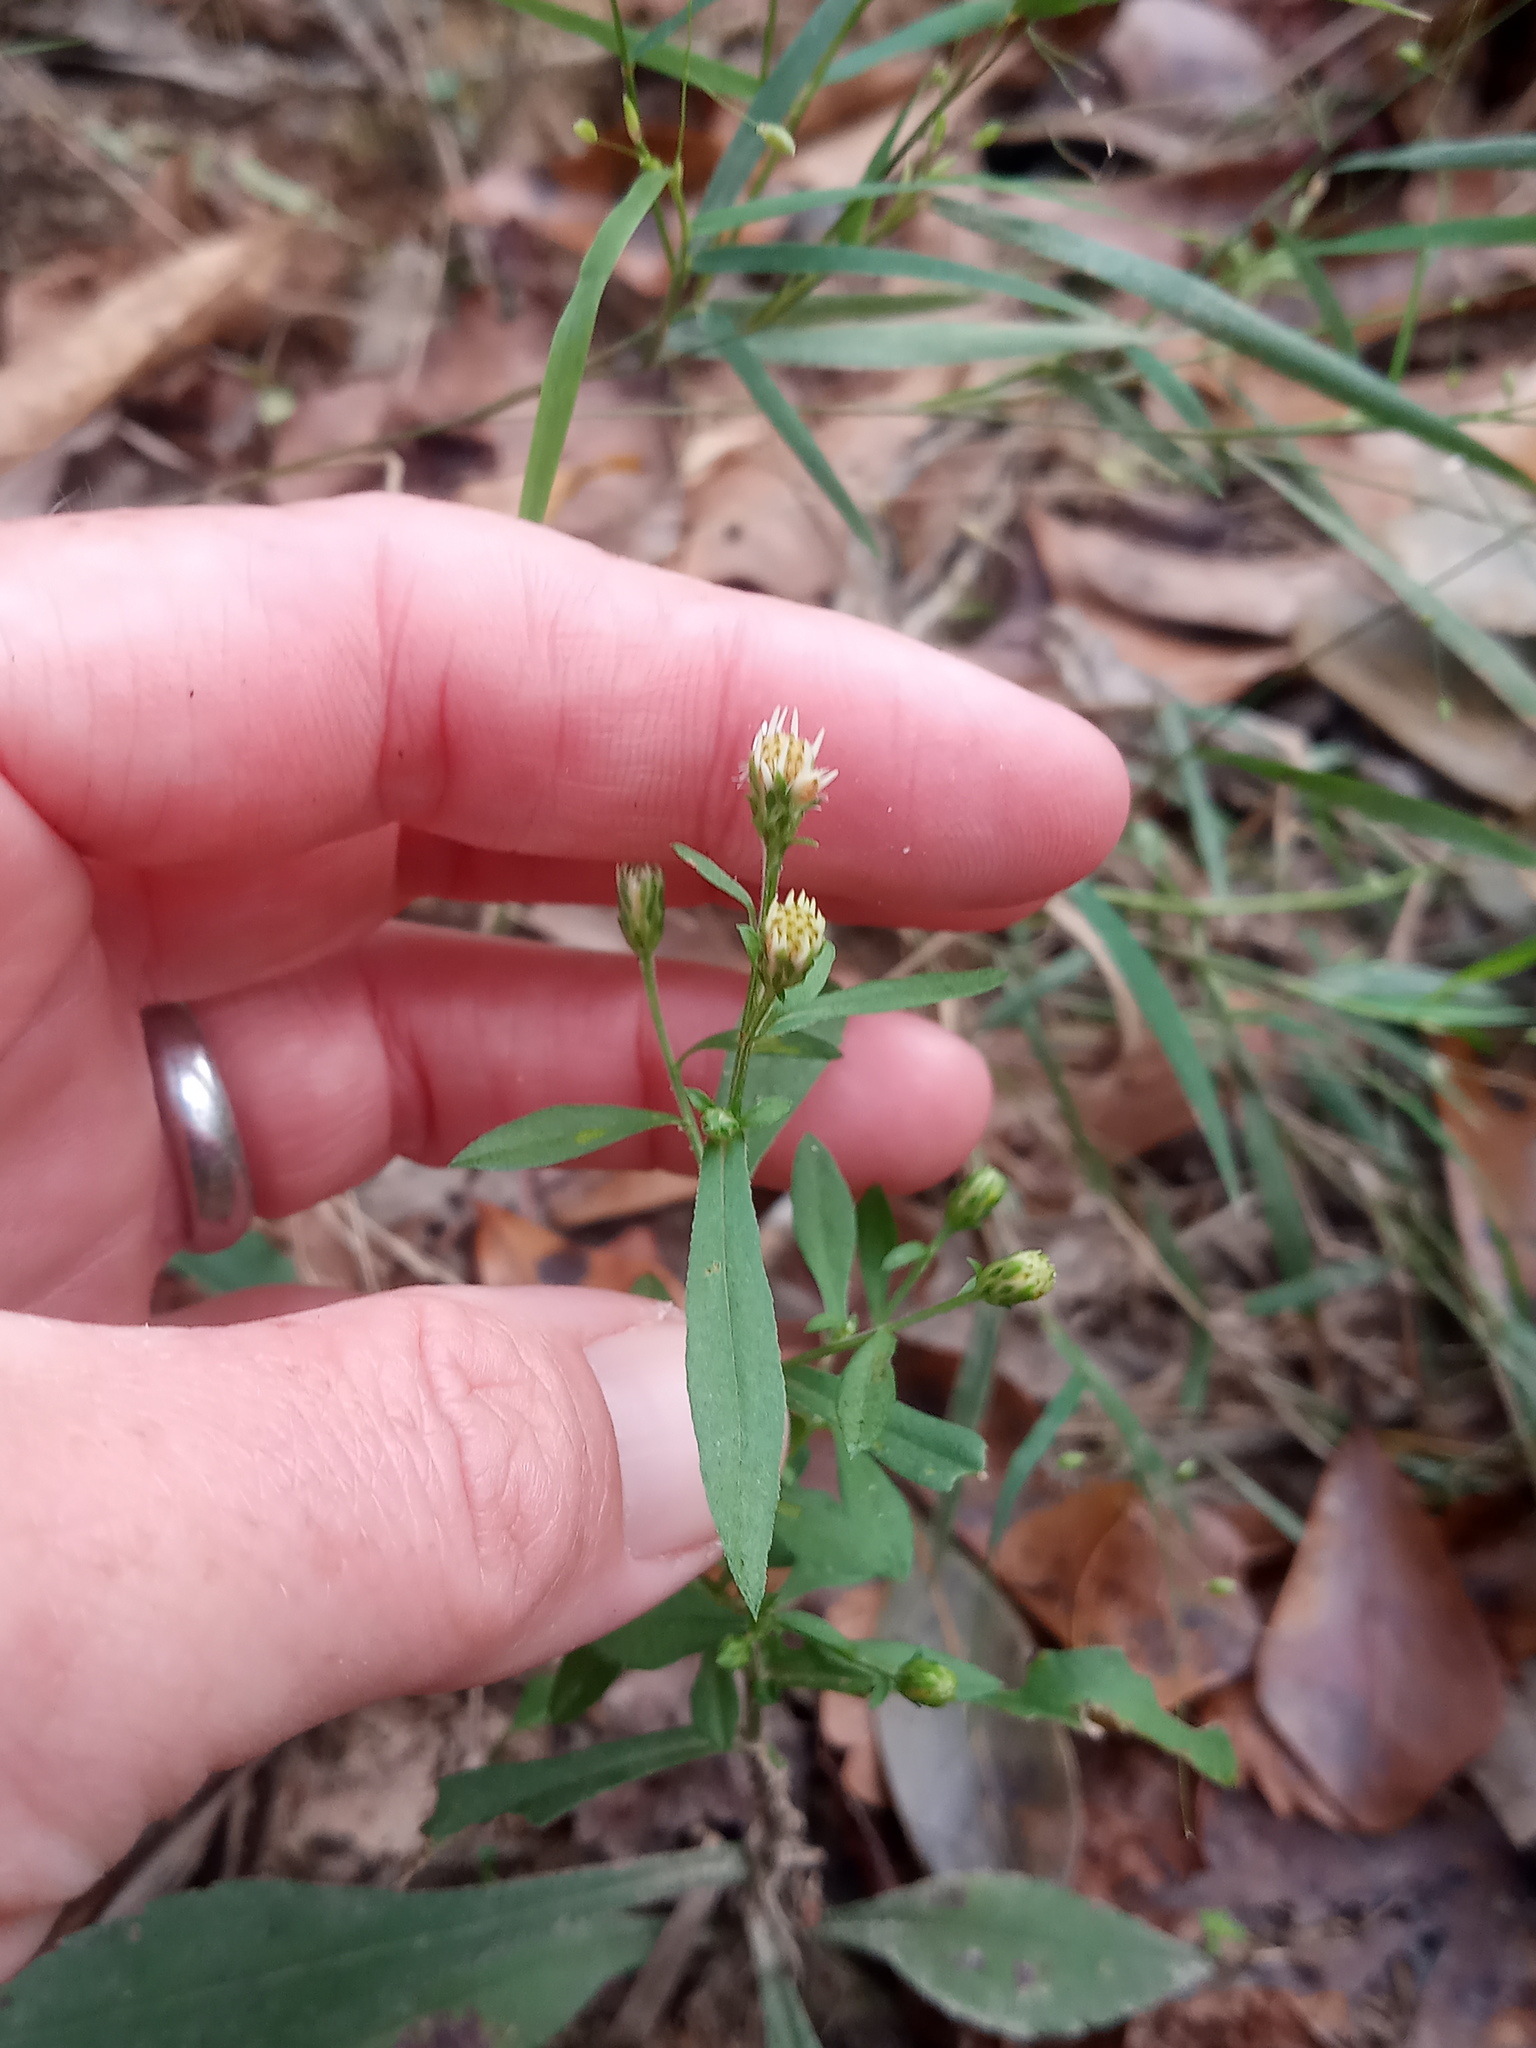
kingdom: Plantae
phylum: Tracheophyta
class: Magnoliopsida
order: Asterales
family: Asteraceae
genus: Symphyotrichum
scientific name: Symphyotrichum lateriflorum
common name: Calico aster
